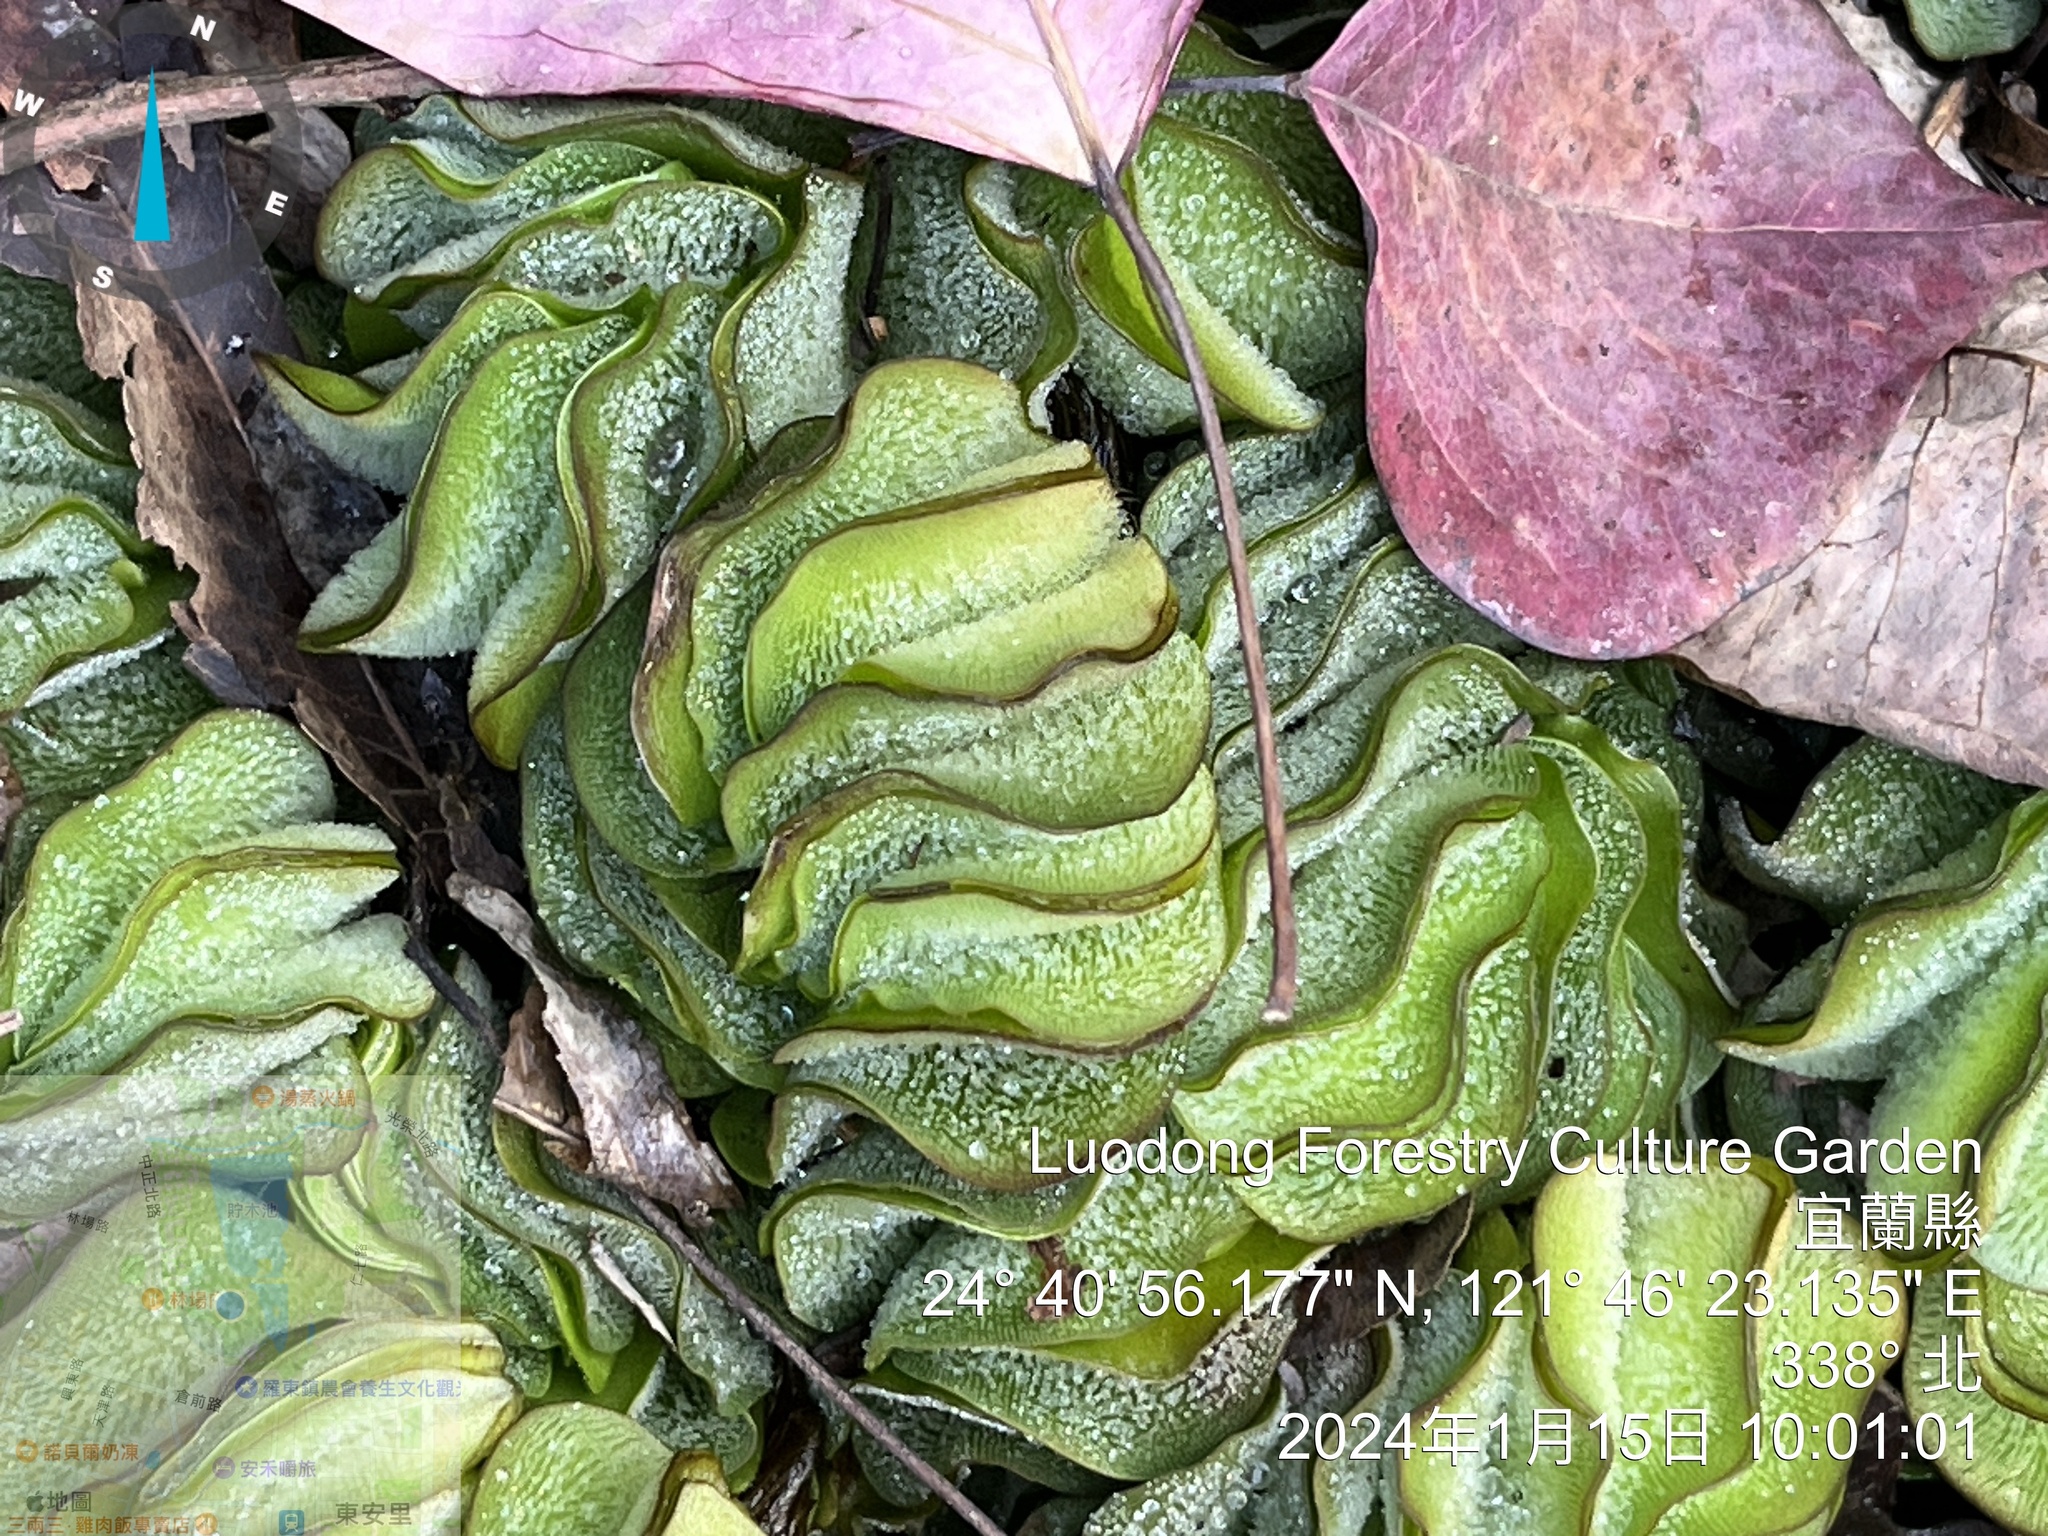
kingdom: Plantae
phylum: Tracheophyta
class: Polypodiopsida
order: Salviniales
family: Salviniaceae
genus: Salvinia
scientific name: Salvinia molesta
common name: Kariba weed
